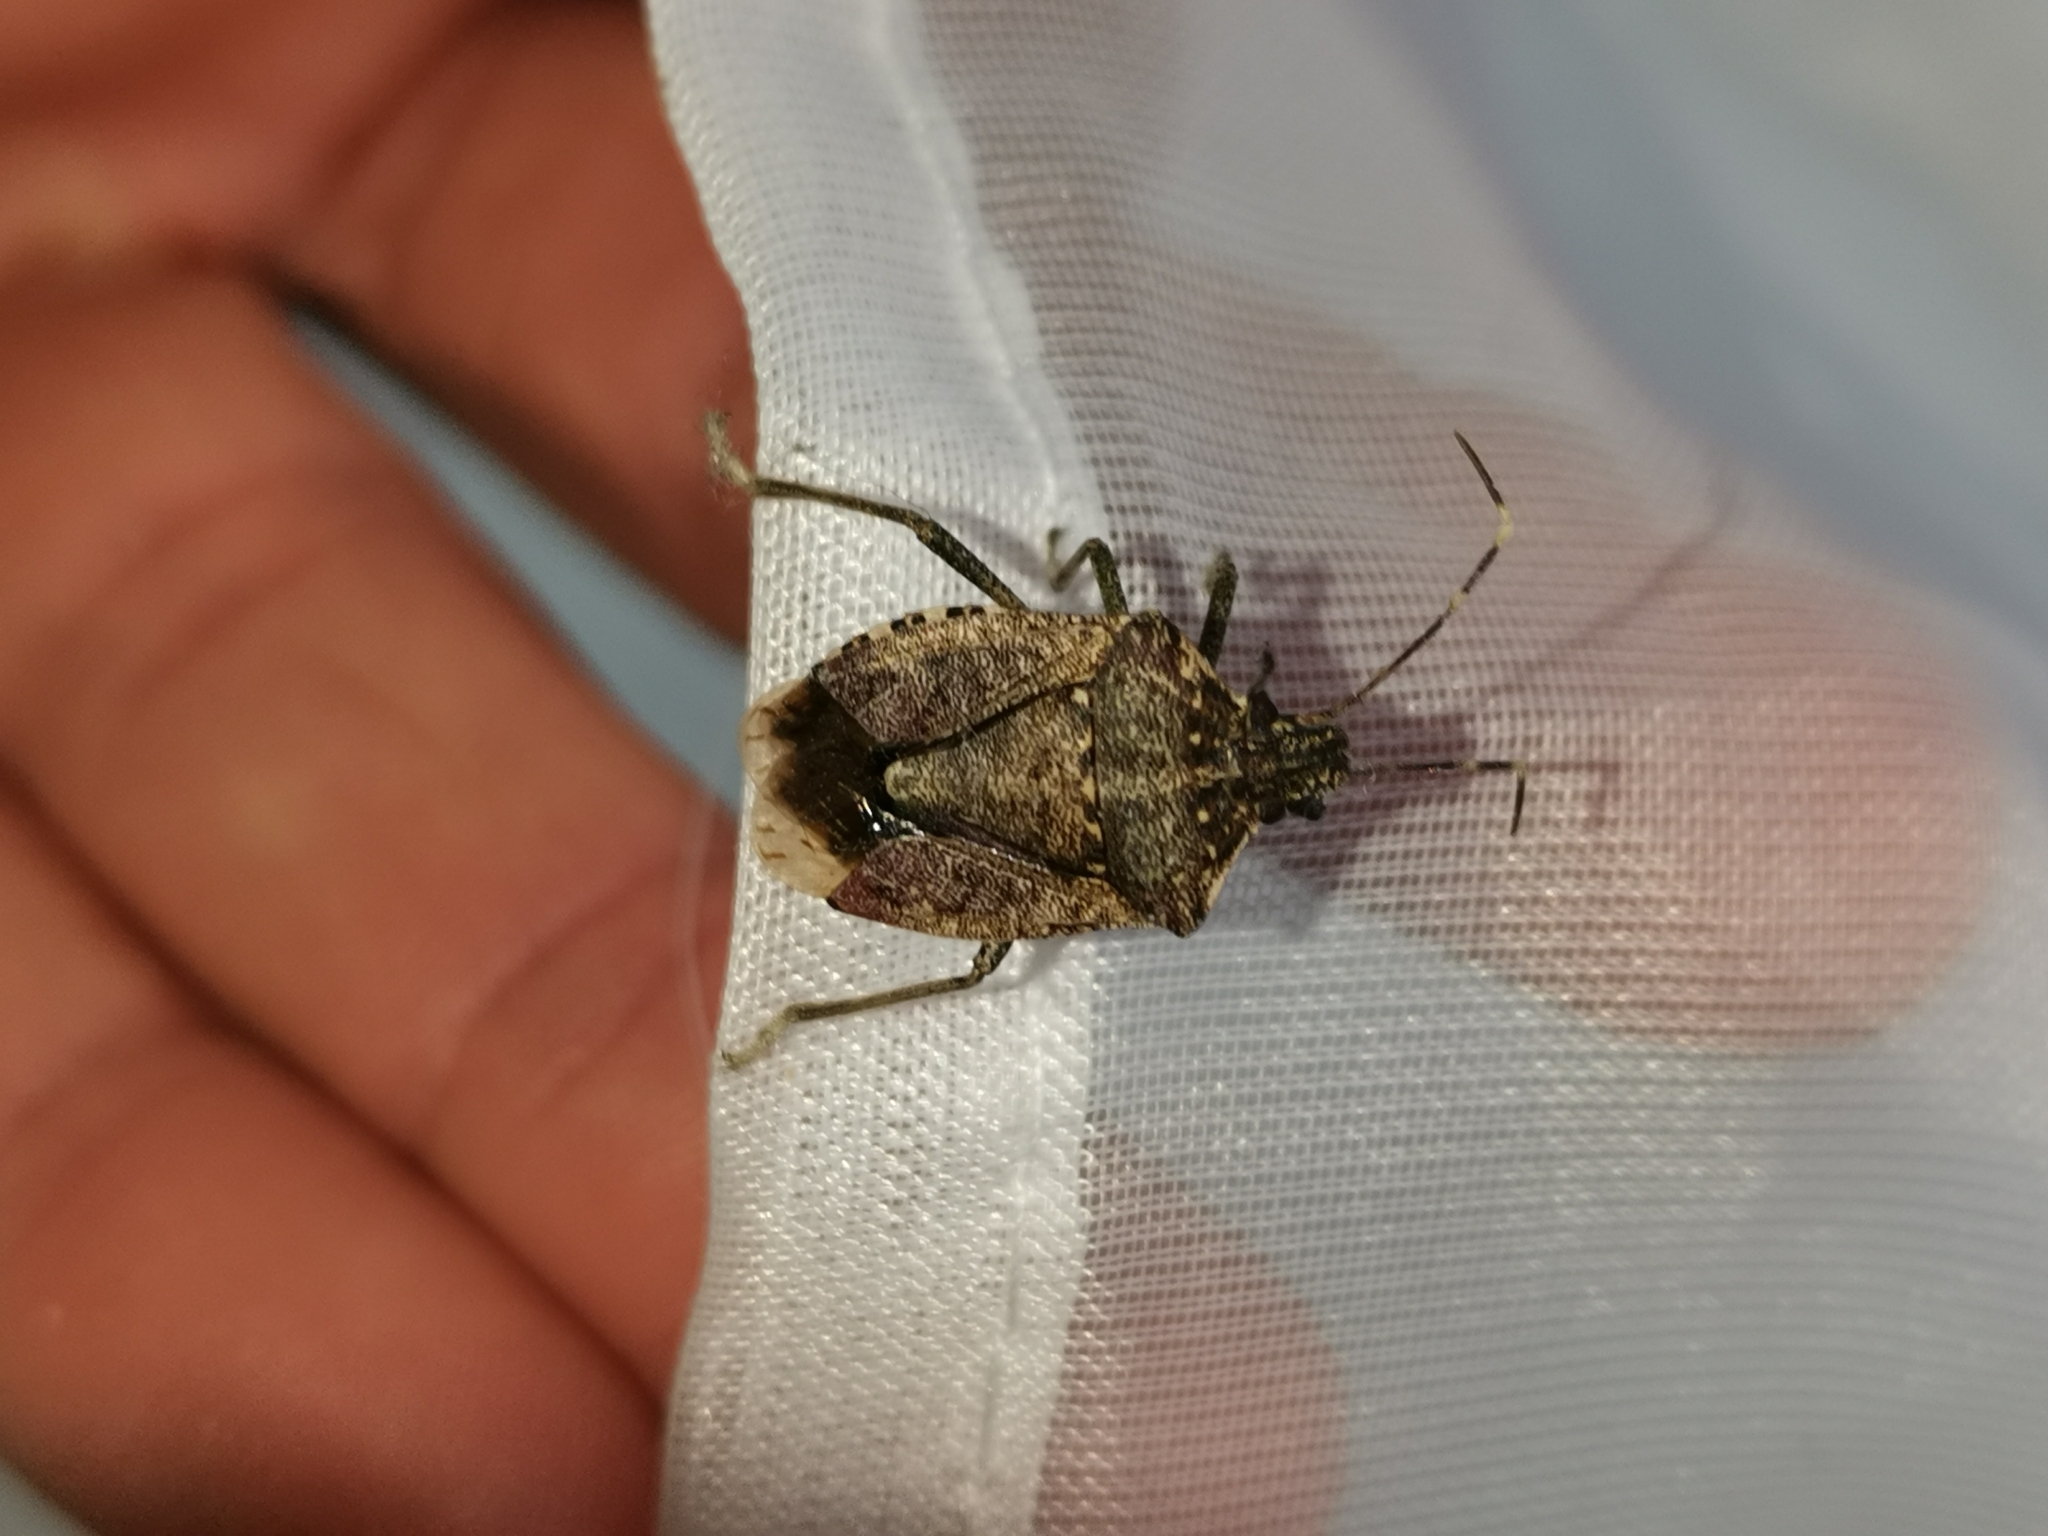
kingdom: Animalia
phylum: Arthropoda
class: Insecta
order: Hemiptera
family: Pentatomidae
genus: Halyomorpha
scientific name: Halyomorpha halys
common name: Brown marmorated stink bug
